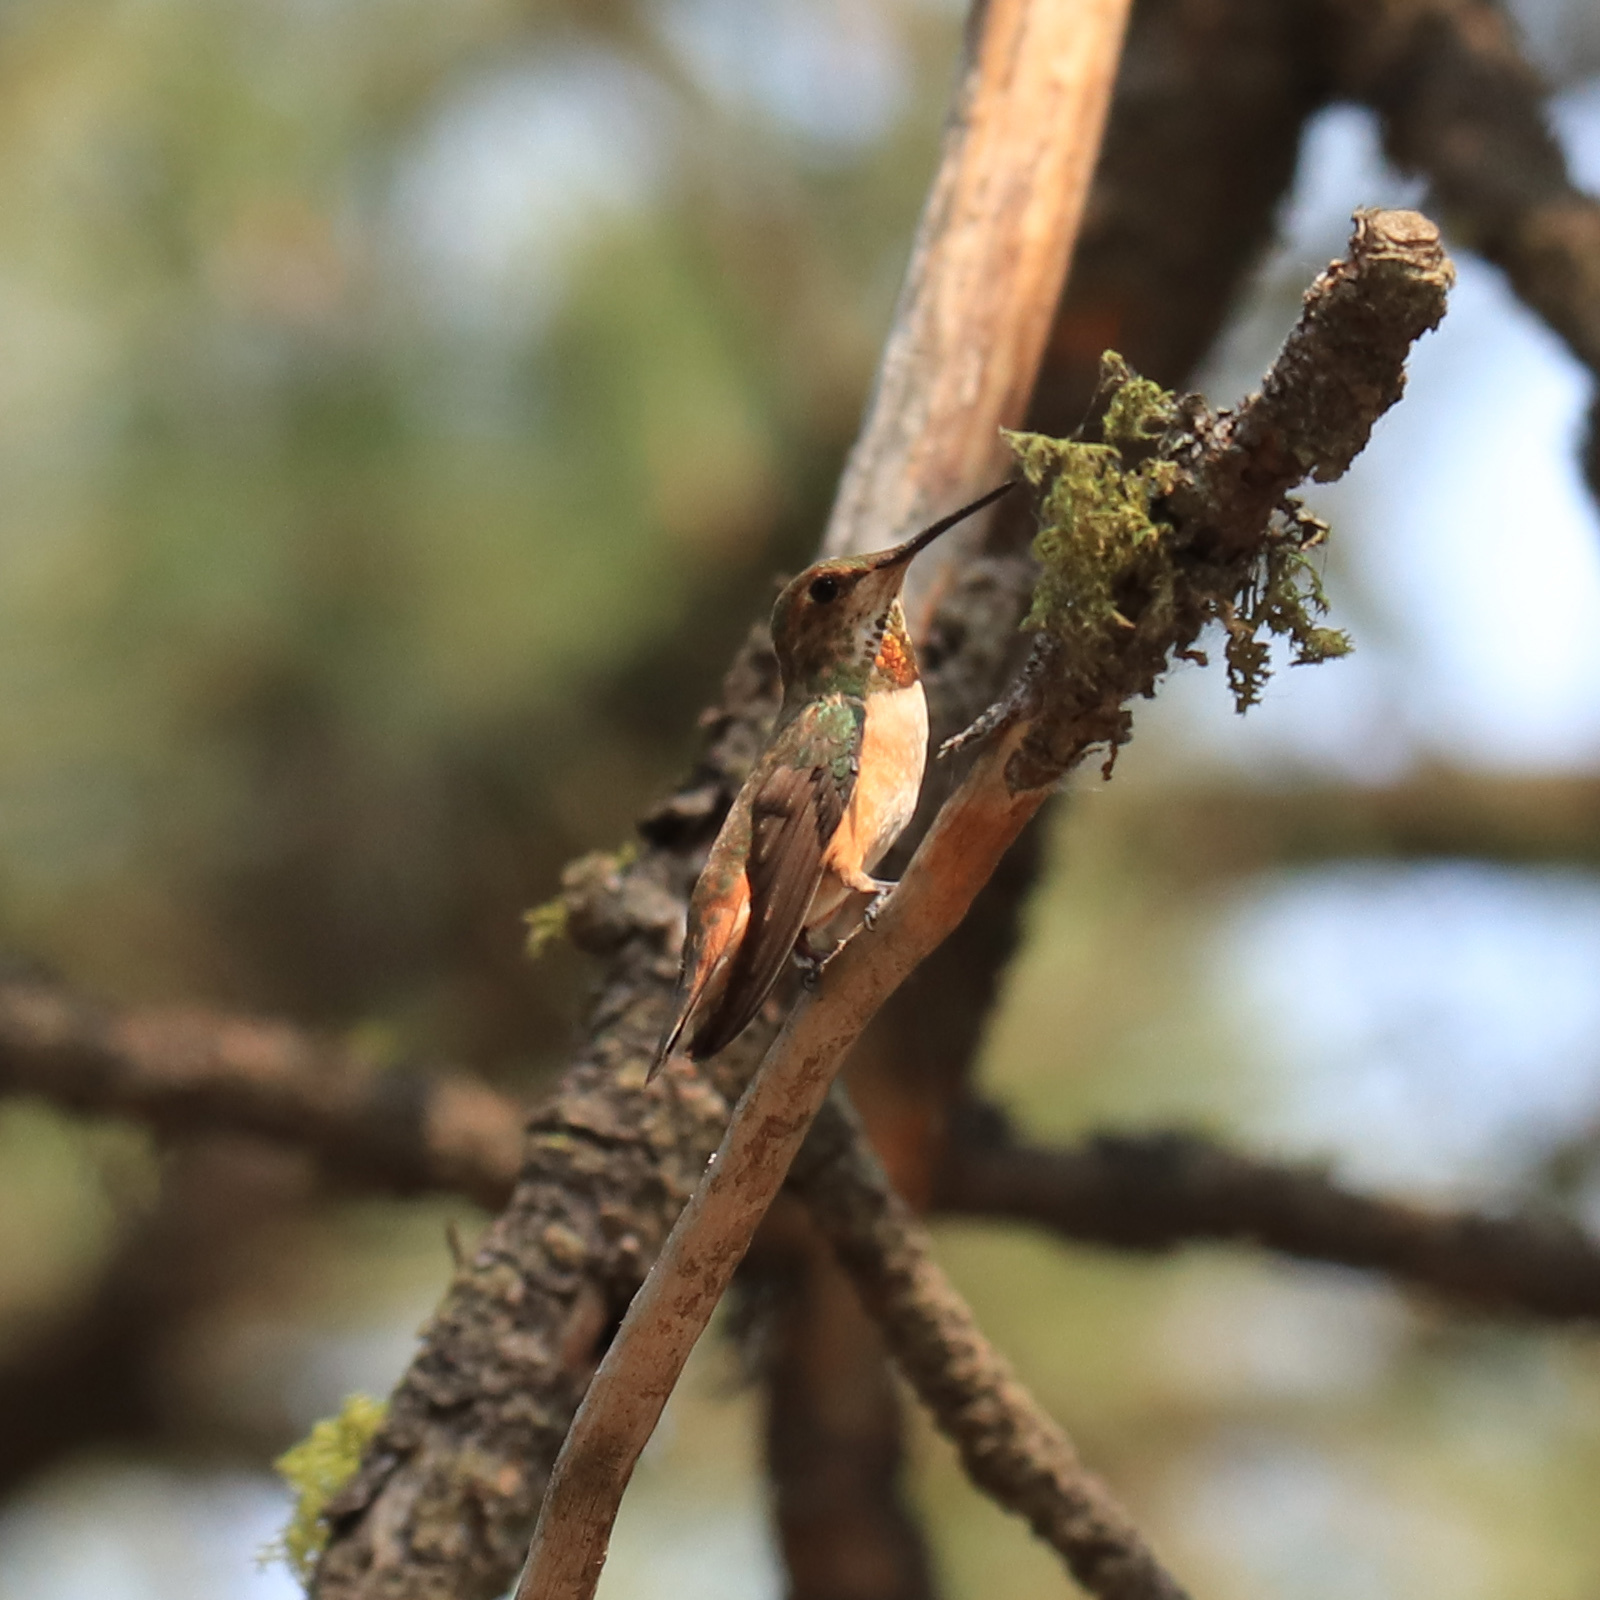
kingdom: Animalia
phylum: Chordata
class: Aves
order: Apodiformes
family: Trochilidae
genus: Selasphorus
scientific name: Selasphorus rufus
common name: Rufous hummingbird
